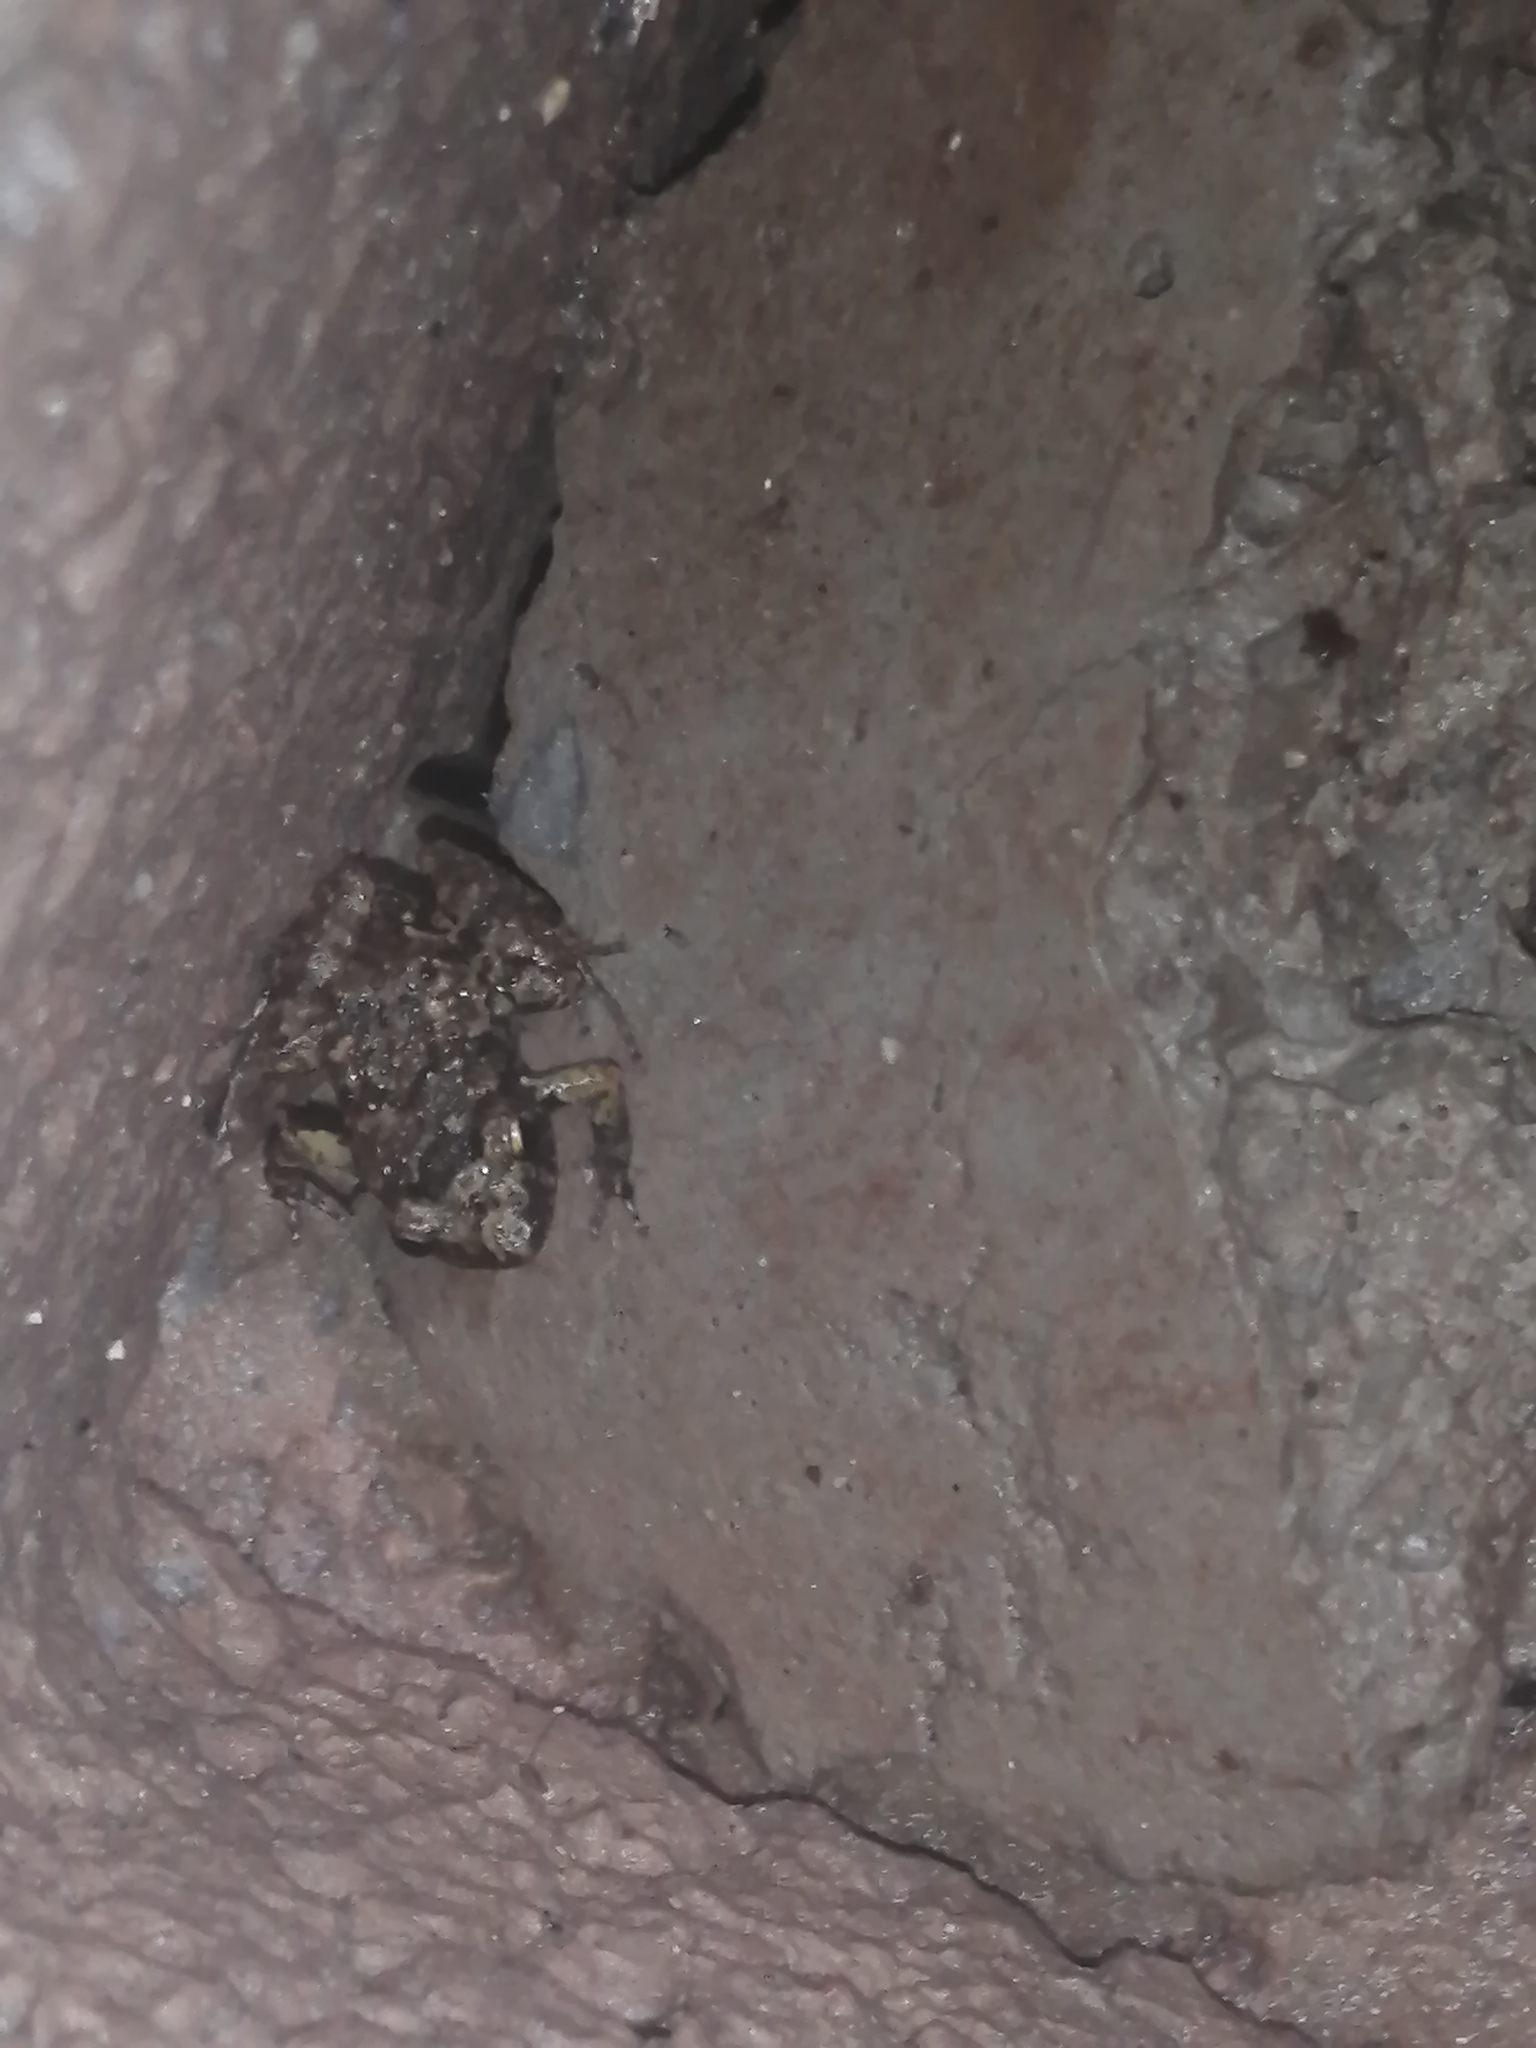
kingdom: Animalia
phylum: Chordata
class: Amphibia
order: Anura
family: Eleutherodactylidae
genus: Eleutherodactylus
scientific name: Eleutherodactylus planirostris
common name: Greenhouse frog
